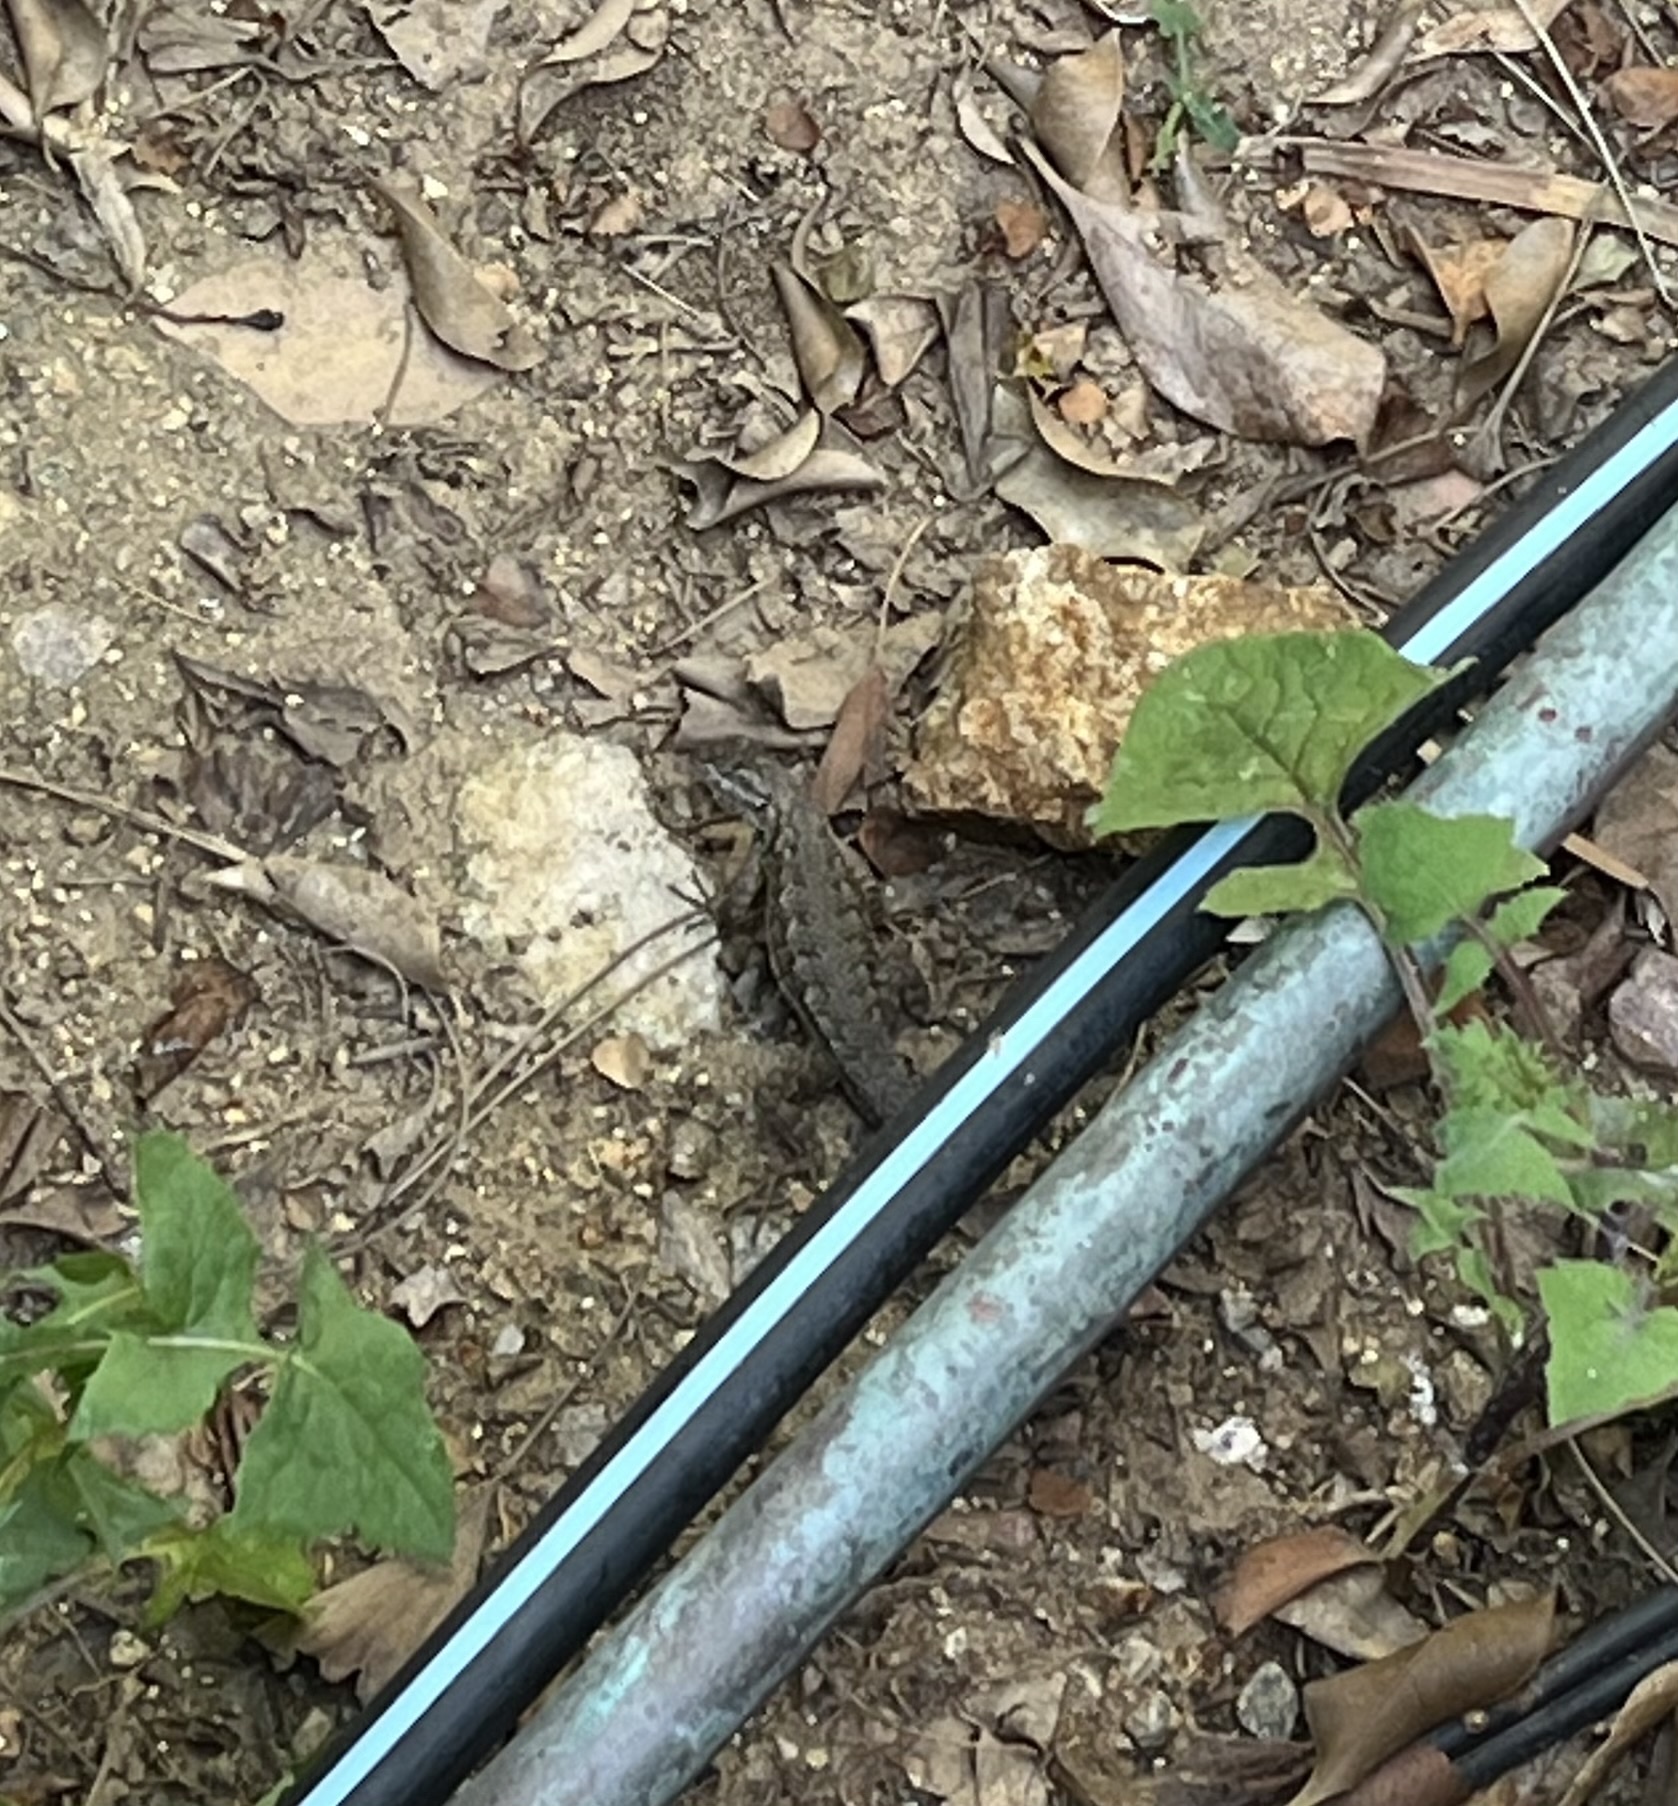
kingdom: Animalia
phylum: Chordata
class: Squamata
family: Phrynosomatidae
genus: Sceloporus
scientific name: Sceloporus occidentalis
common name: Western fence lizard
